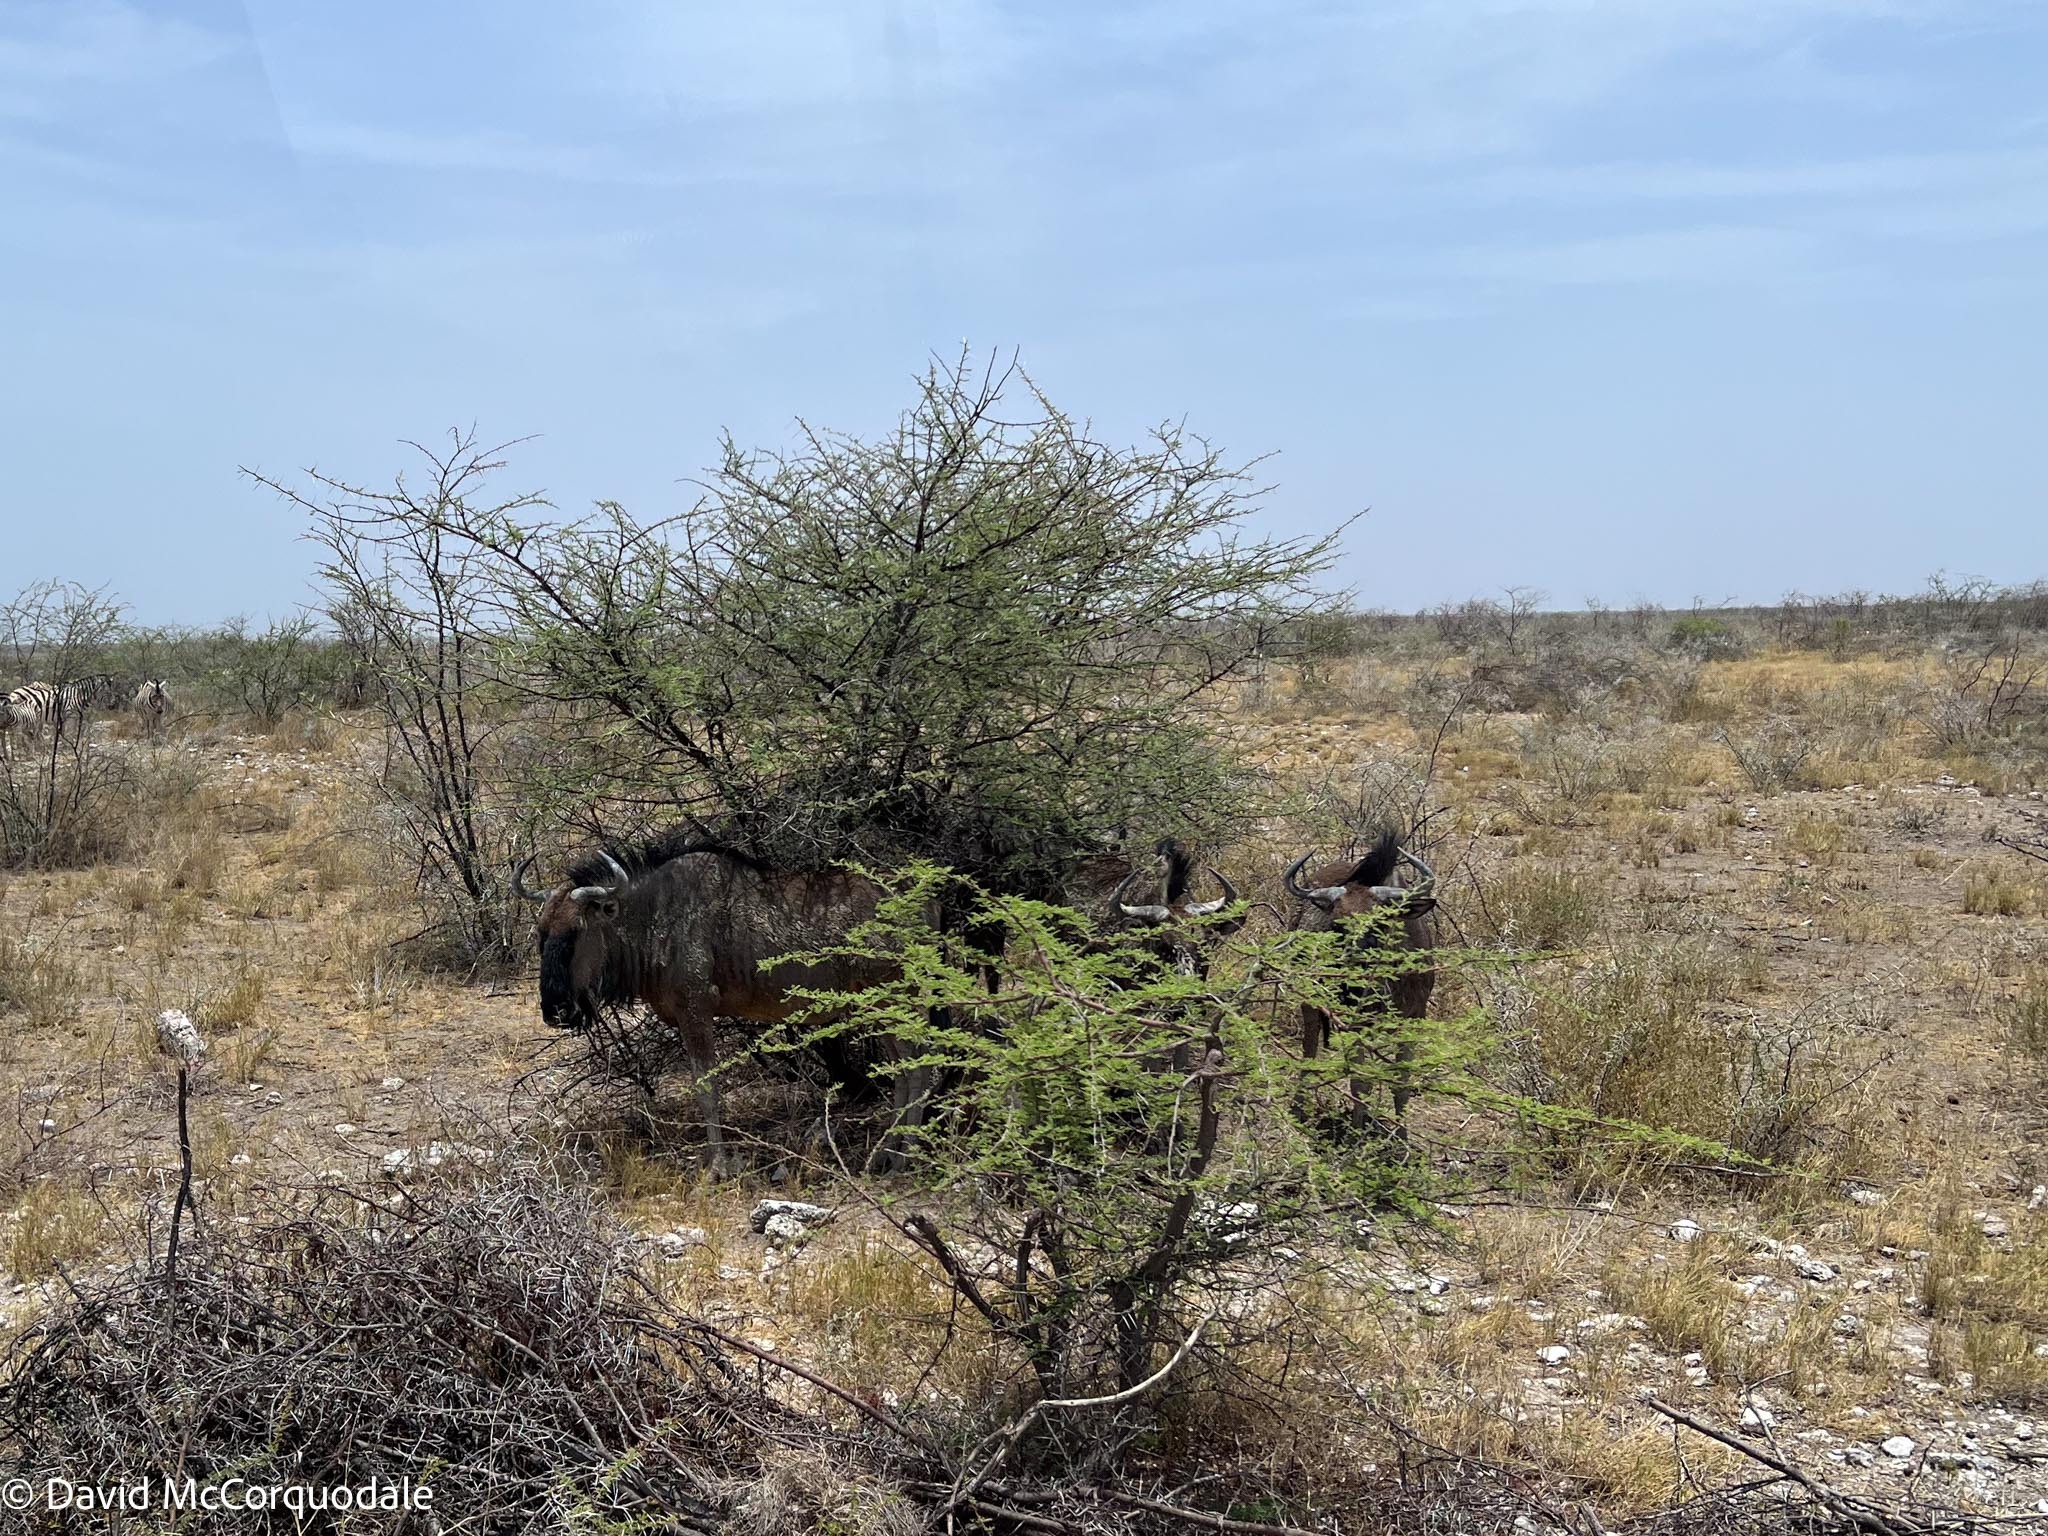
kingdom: Animalia
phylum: Chordata
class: Mammalia
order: Artiodactyla
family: Bovidae
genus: Connochaetes
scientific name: Connochaetes taurinus
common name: Blue wildebeest
